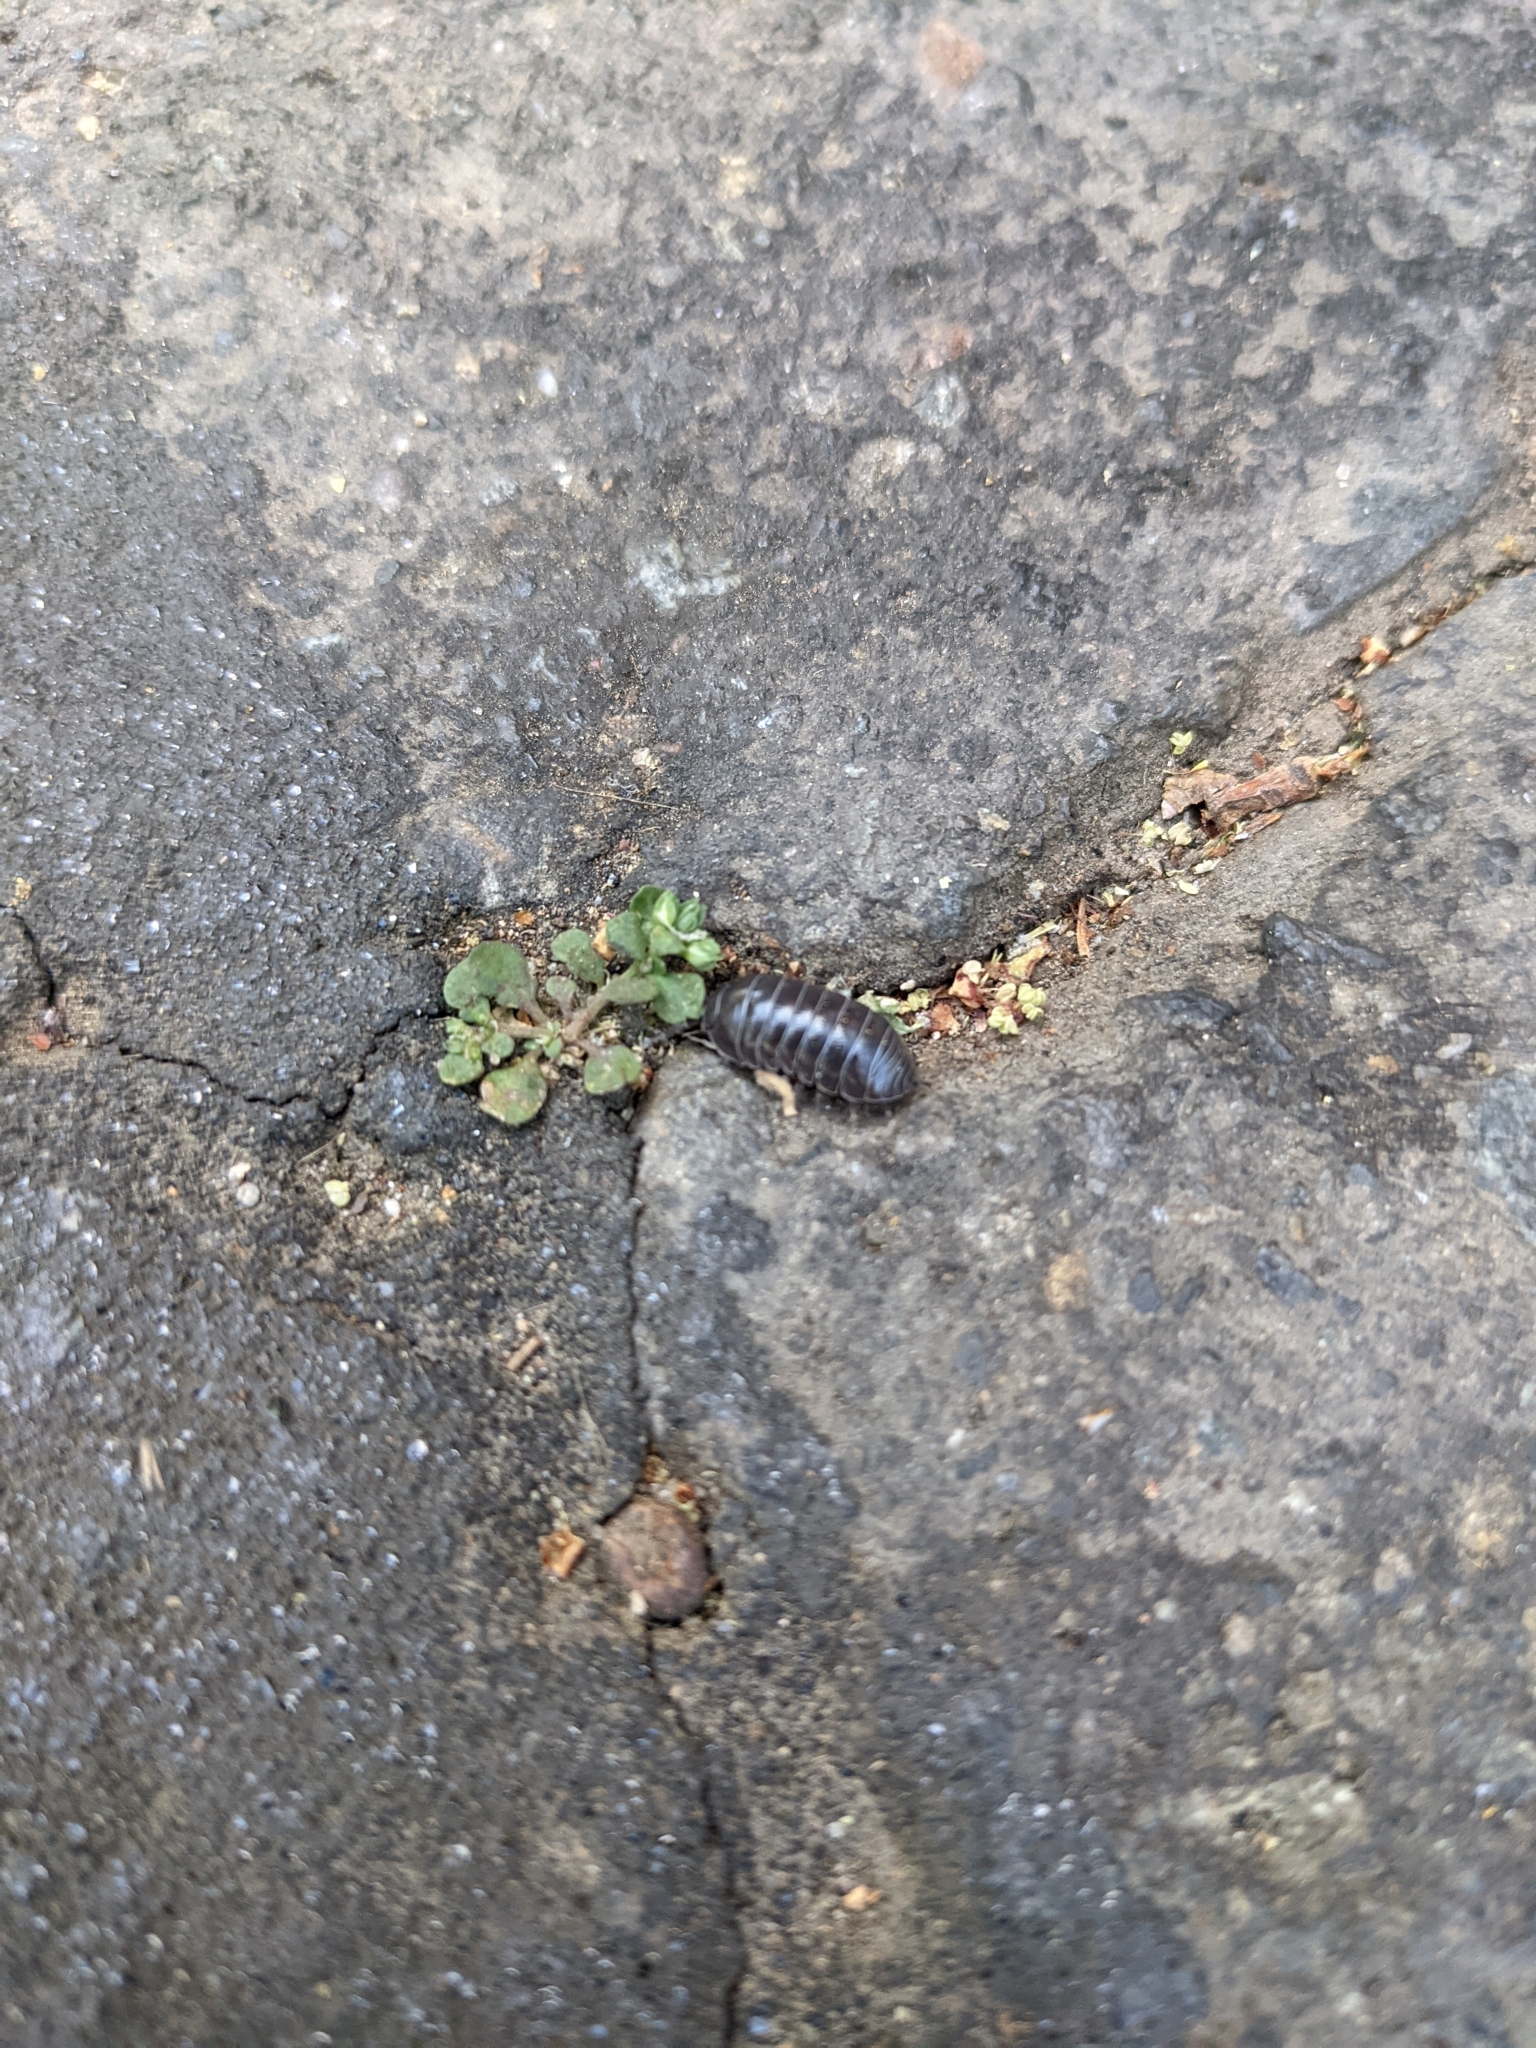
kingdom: Animalia
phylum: Arthropoda
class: Malacostraca
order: Isopoda
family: Armadillidiidae
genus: Armadillidium
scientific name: Armadillidium vulgare
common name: Common pill woodlouse
